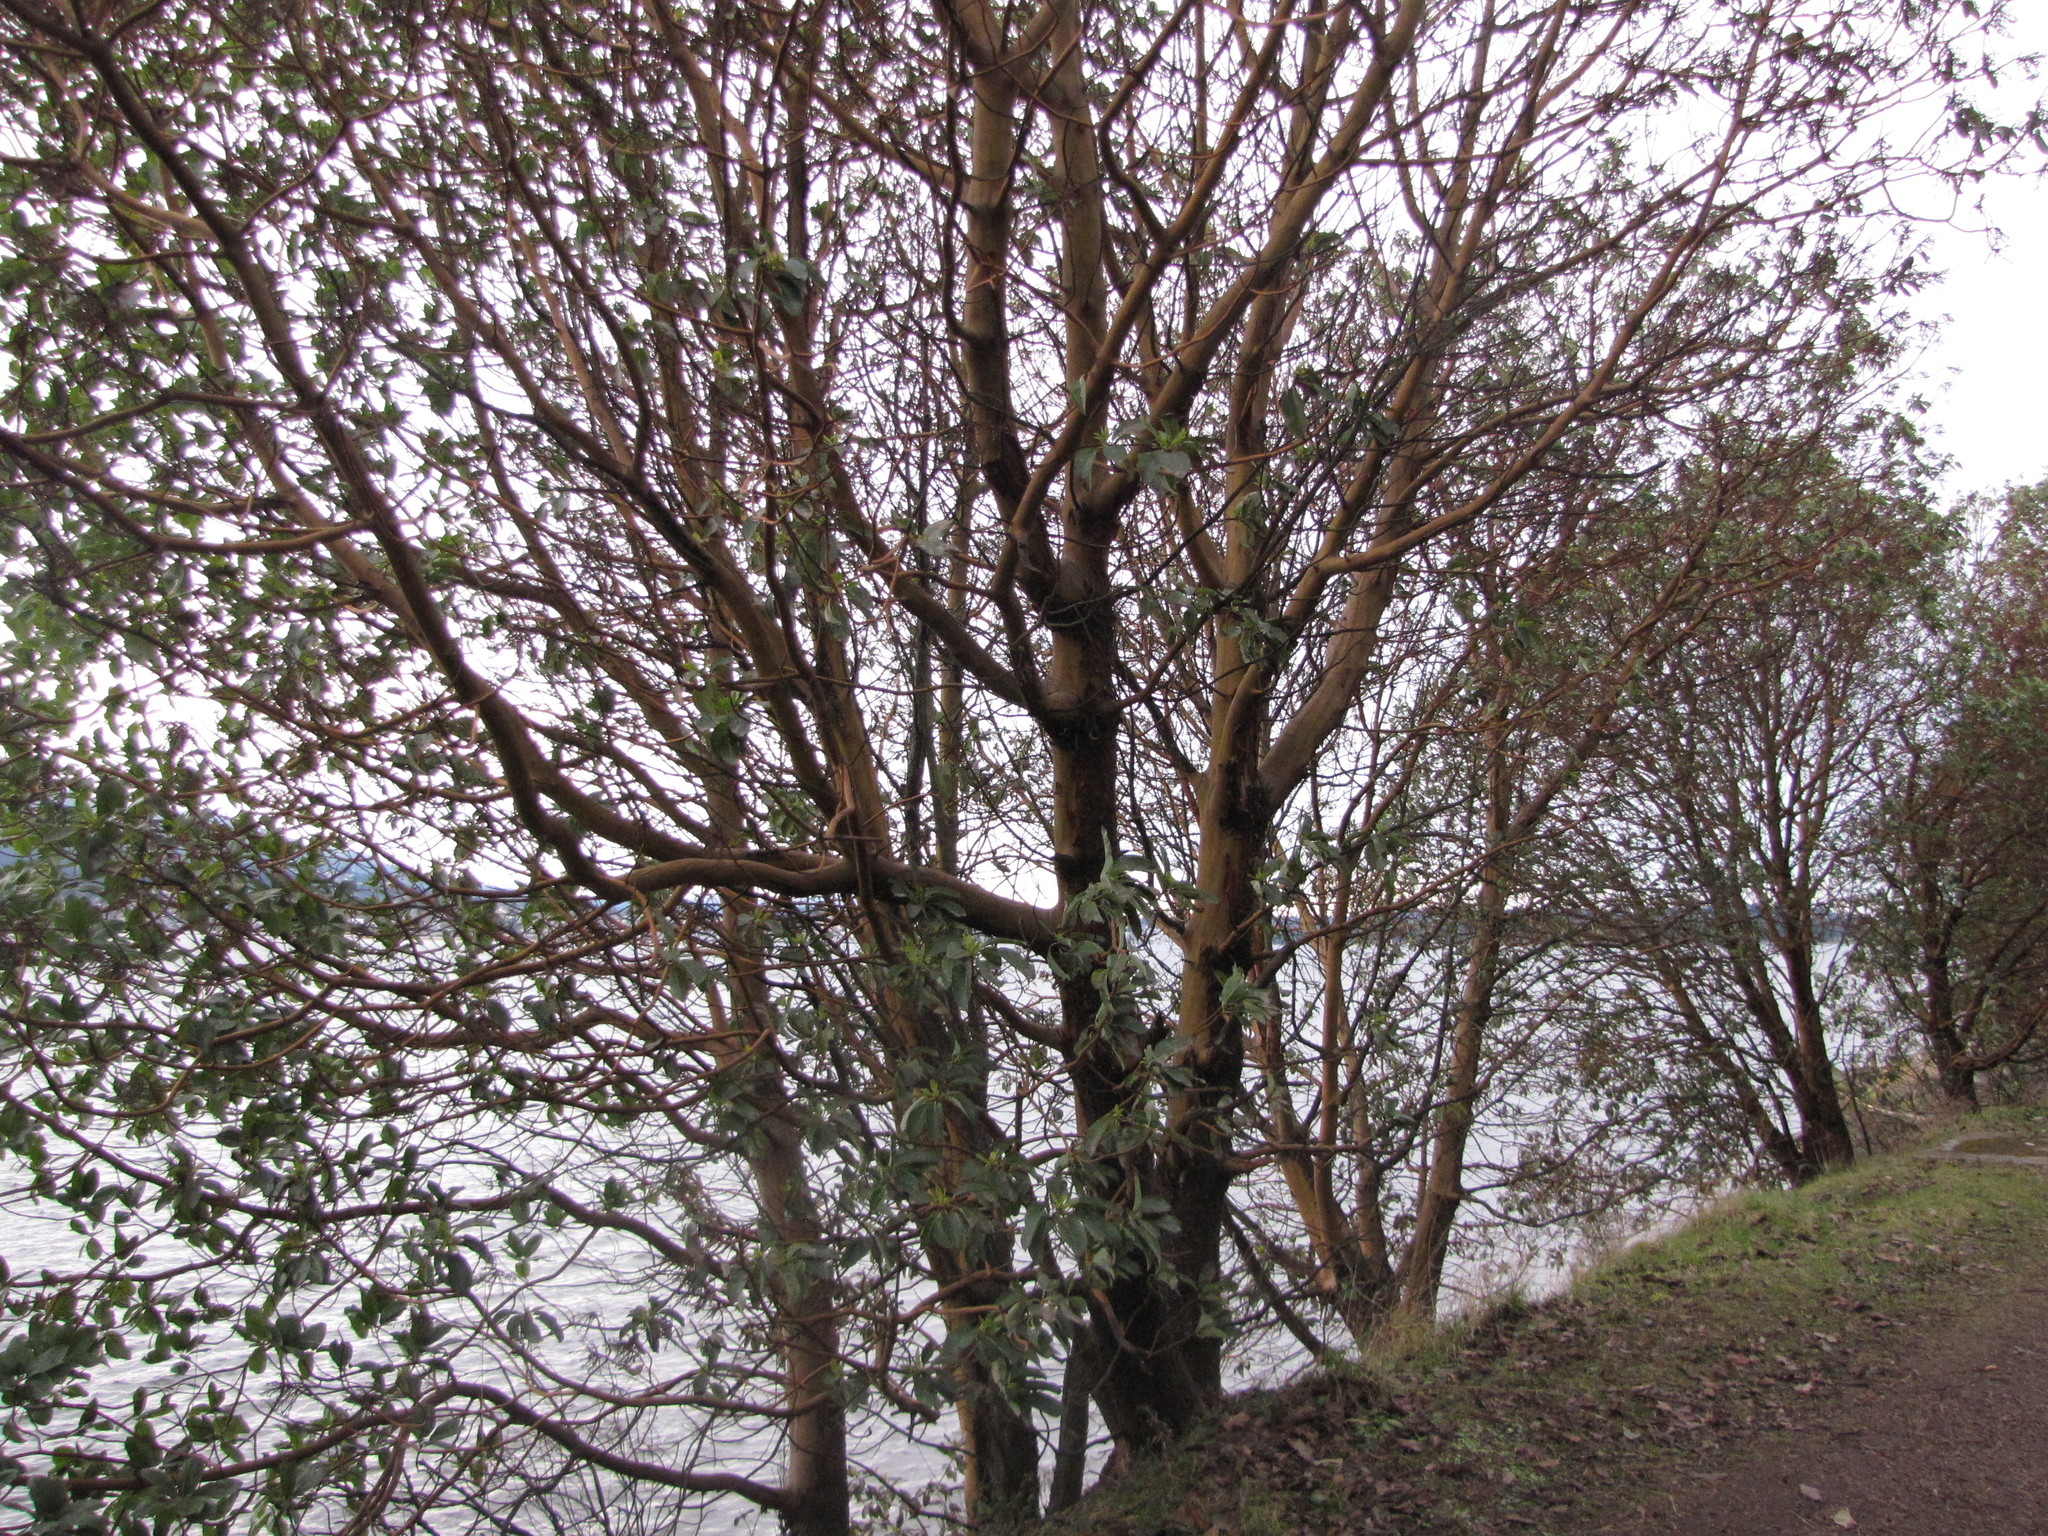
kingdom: Plantae
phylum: Tracheophyta
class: Magnoliopsida
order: Ericales
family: Ericaceae
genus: Arbutus
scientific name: Arbutus menziesii
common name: Pacific madrone
